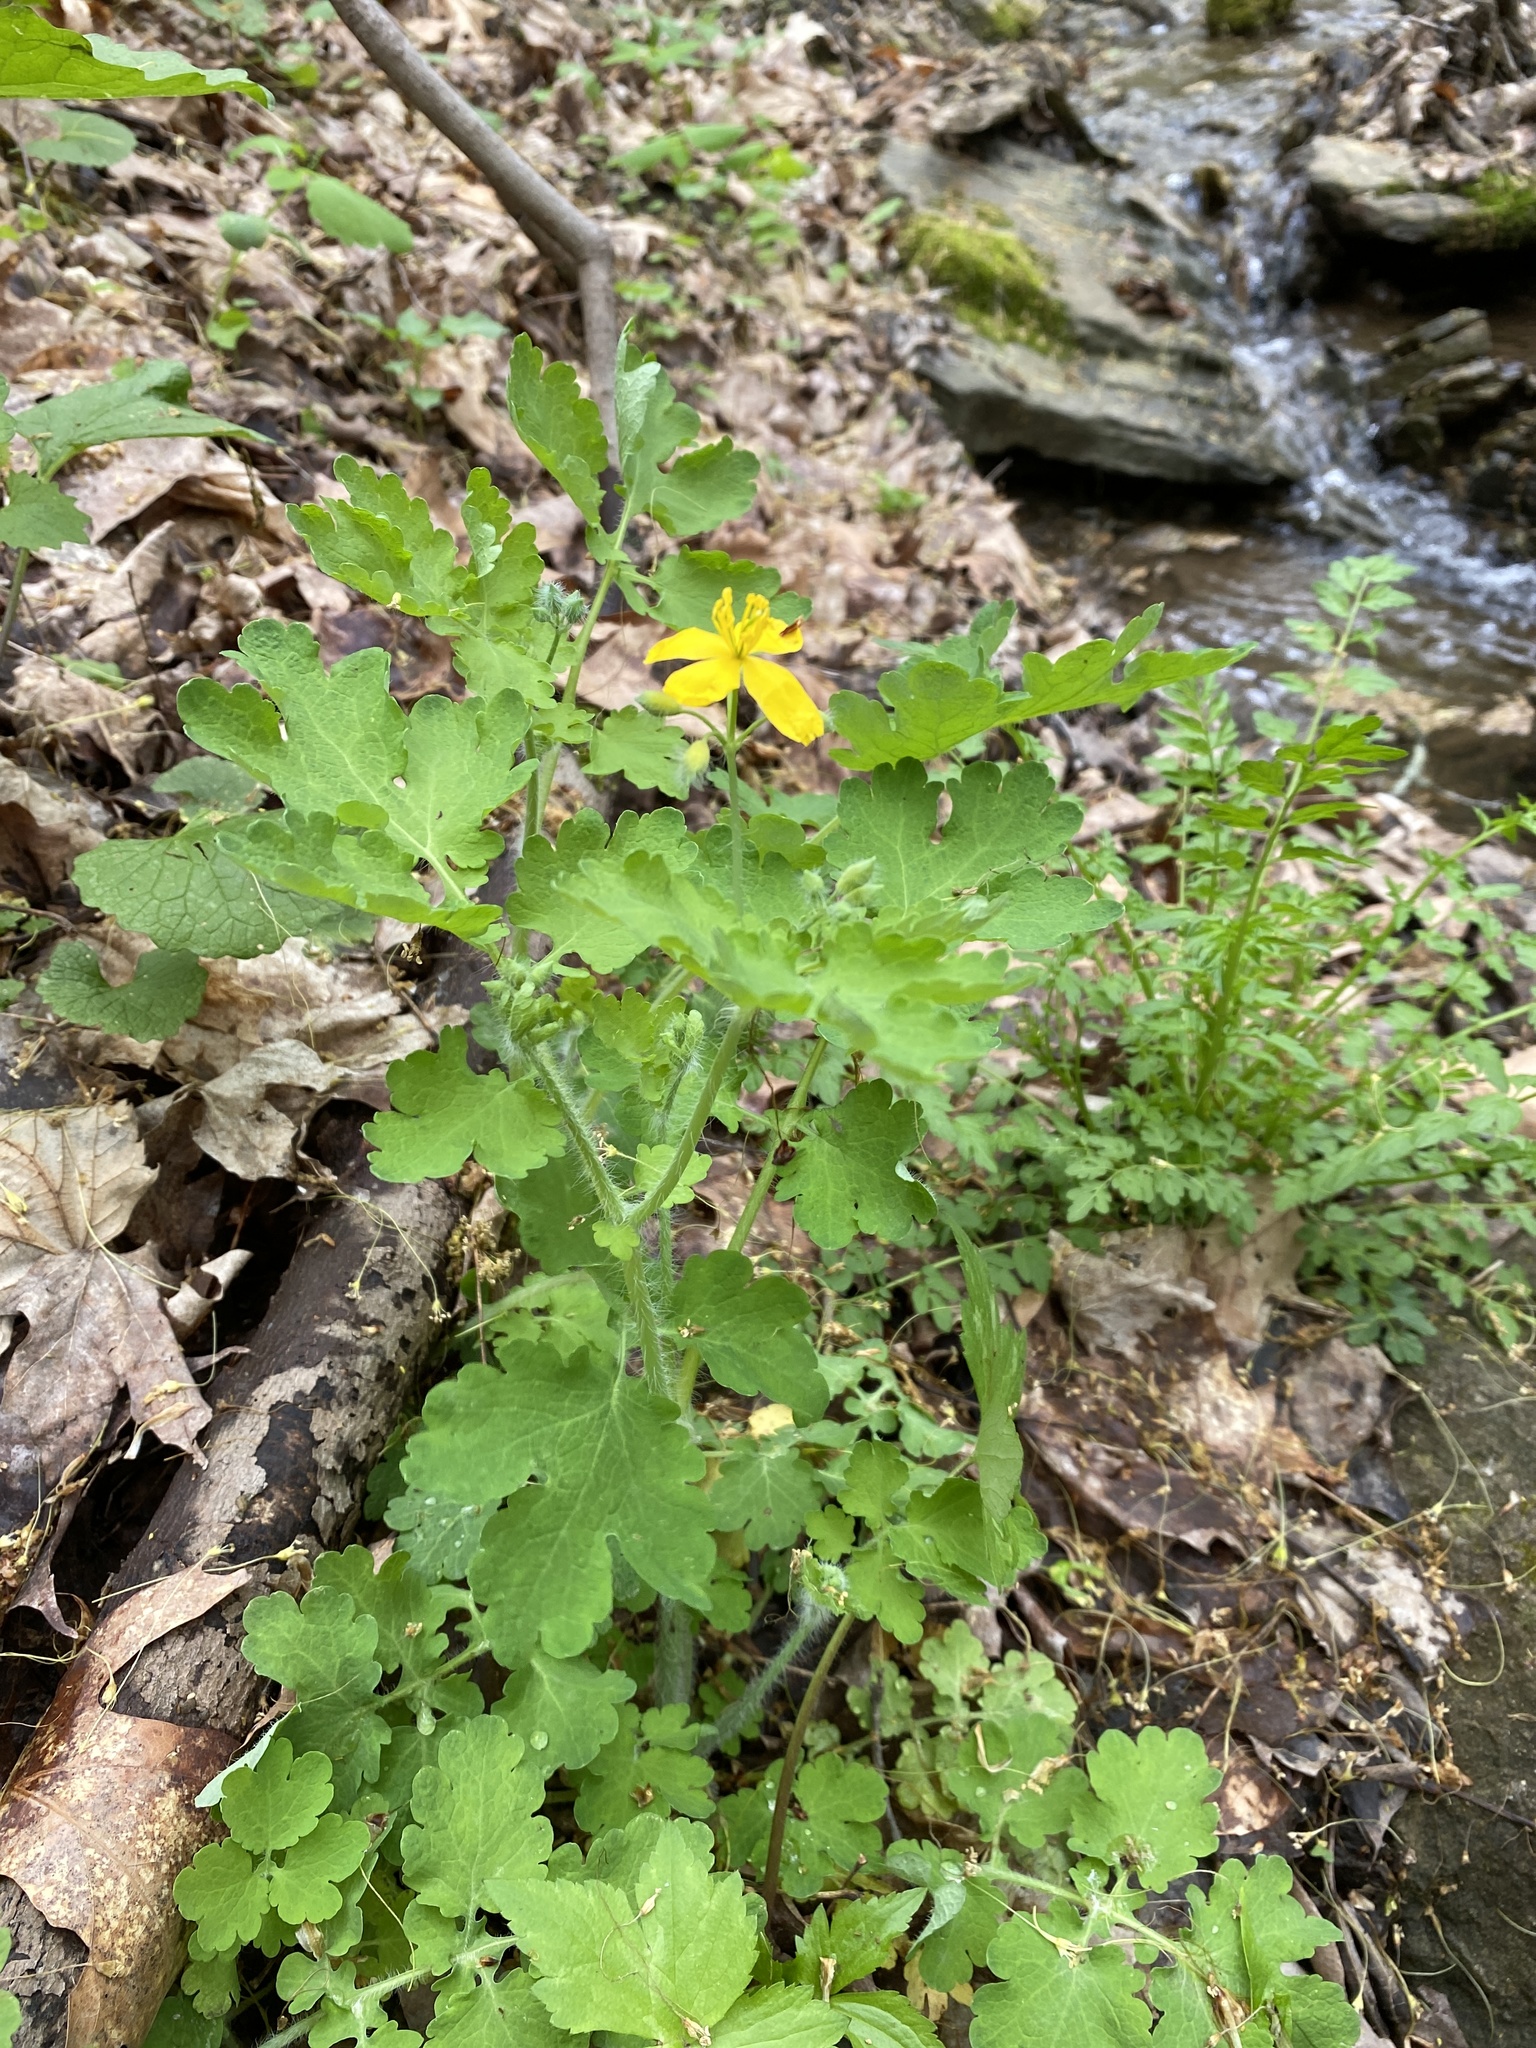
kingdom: Plantae
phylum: Tracheophyta
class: Magnoliopsida
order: Ranunculales
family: Papaveraceae
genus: Chelidonium
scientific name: Chelidonium majus
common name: Greater celandine
